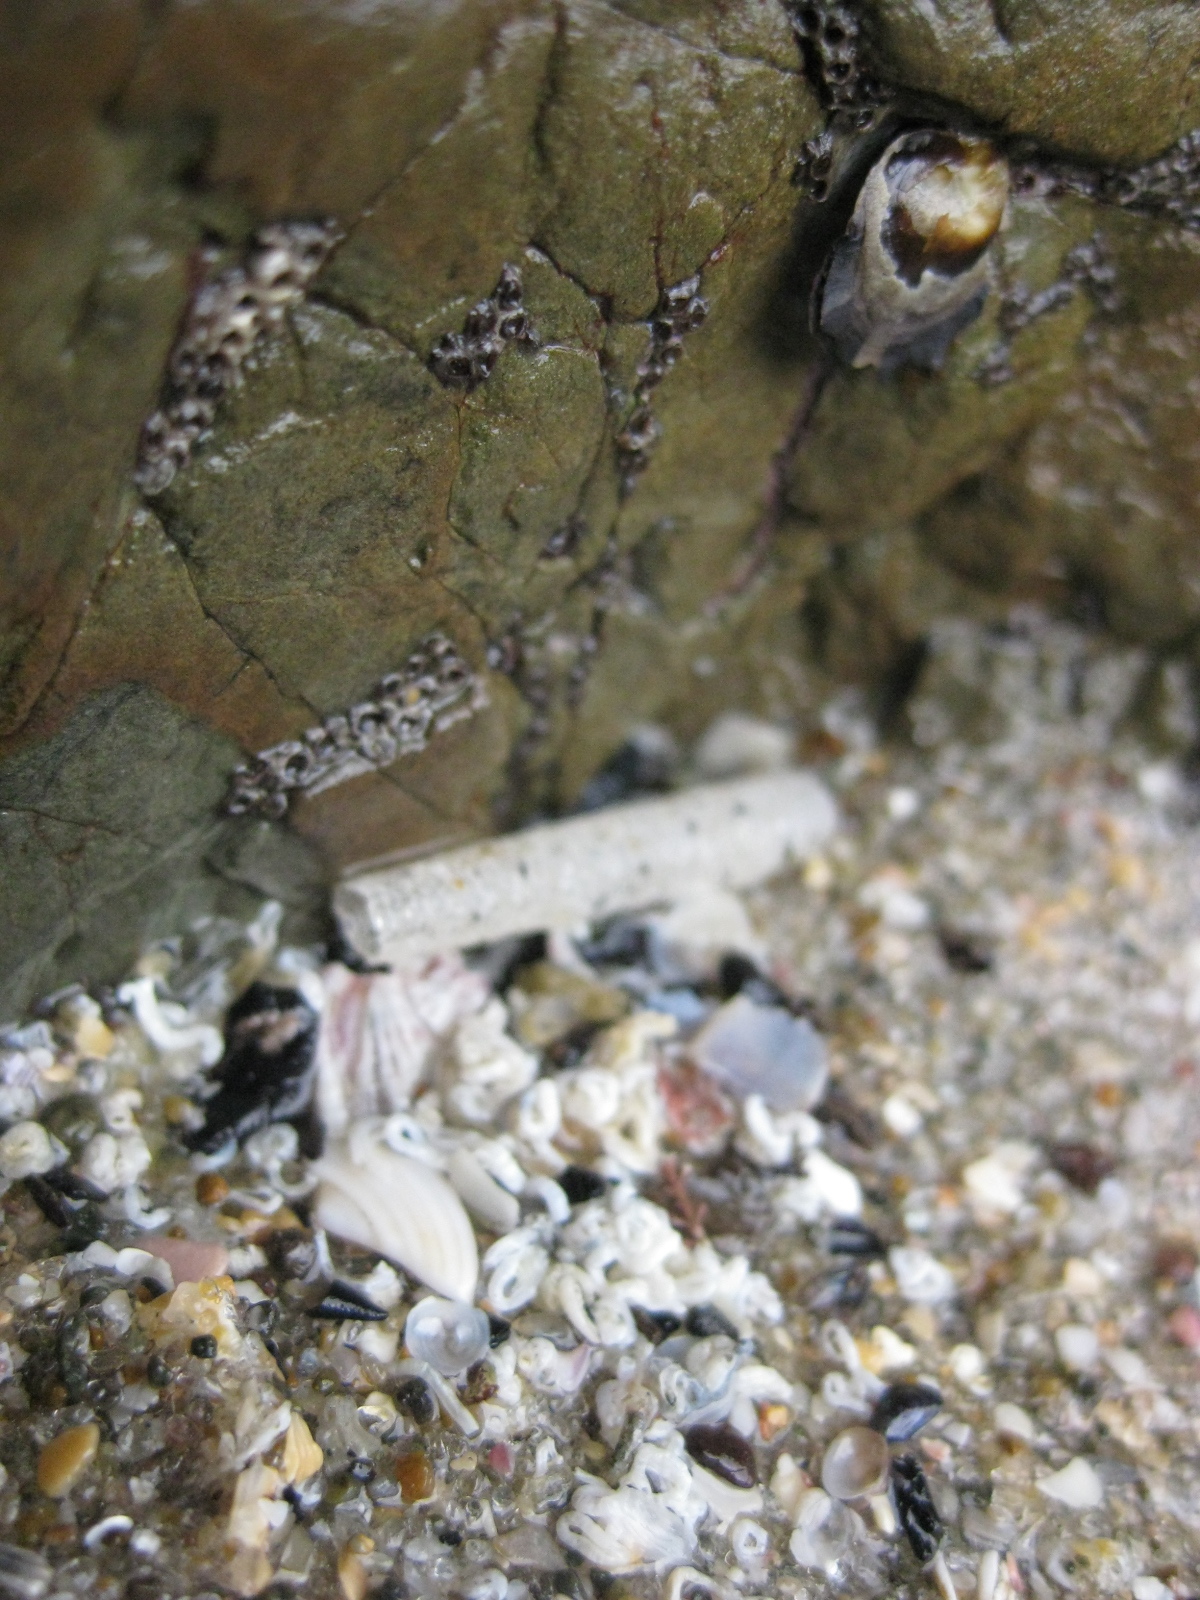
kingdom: Animalia
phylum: Annelida
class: Polychaeta
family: Pectinariidae
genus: Lagis
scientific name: Lagis australis
